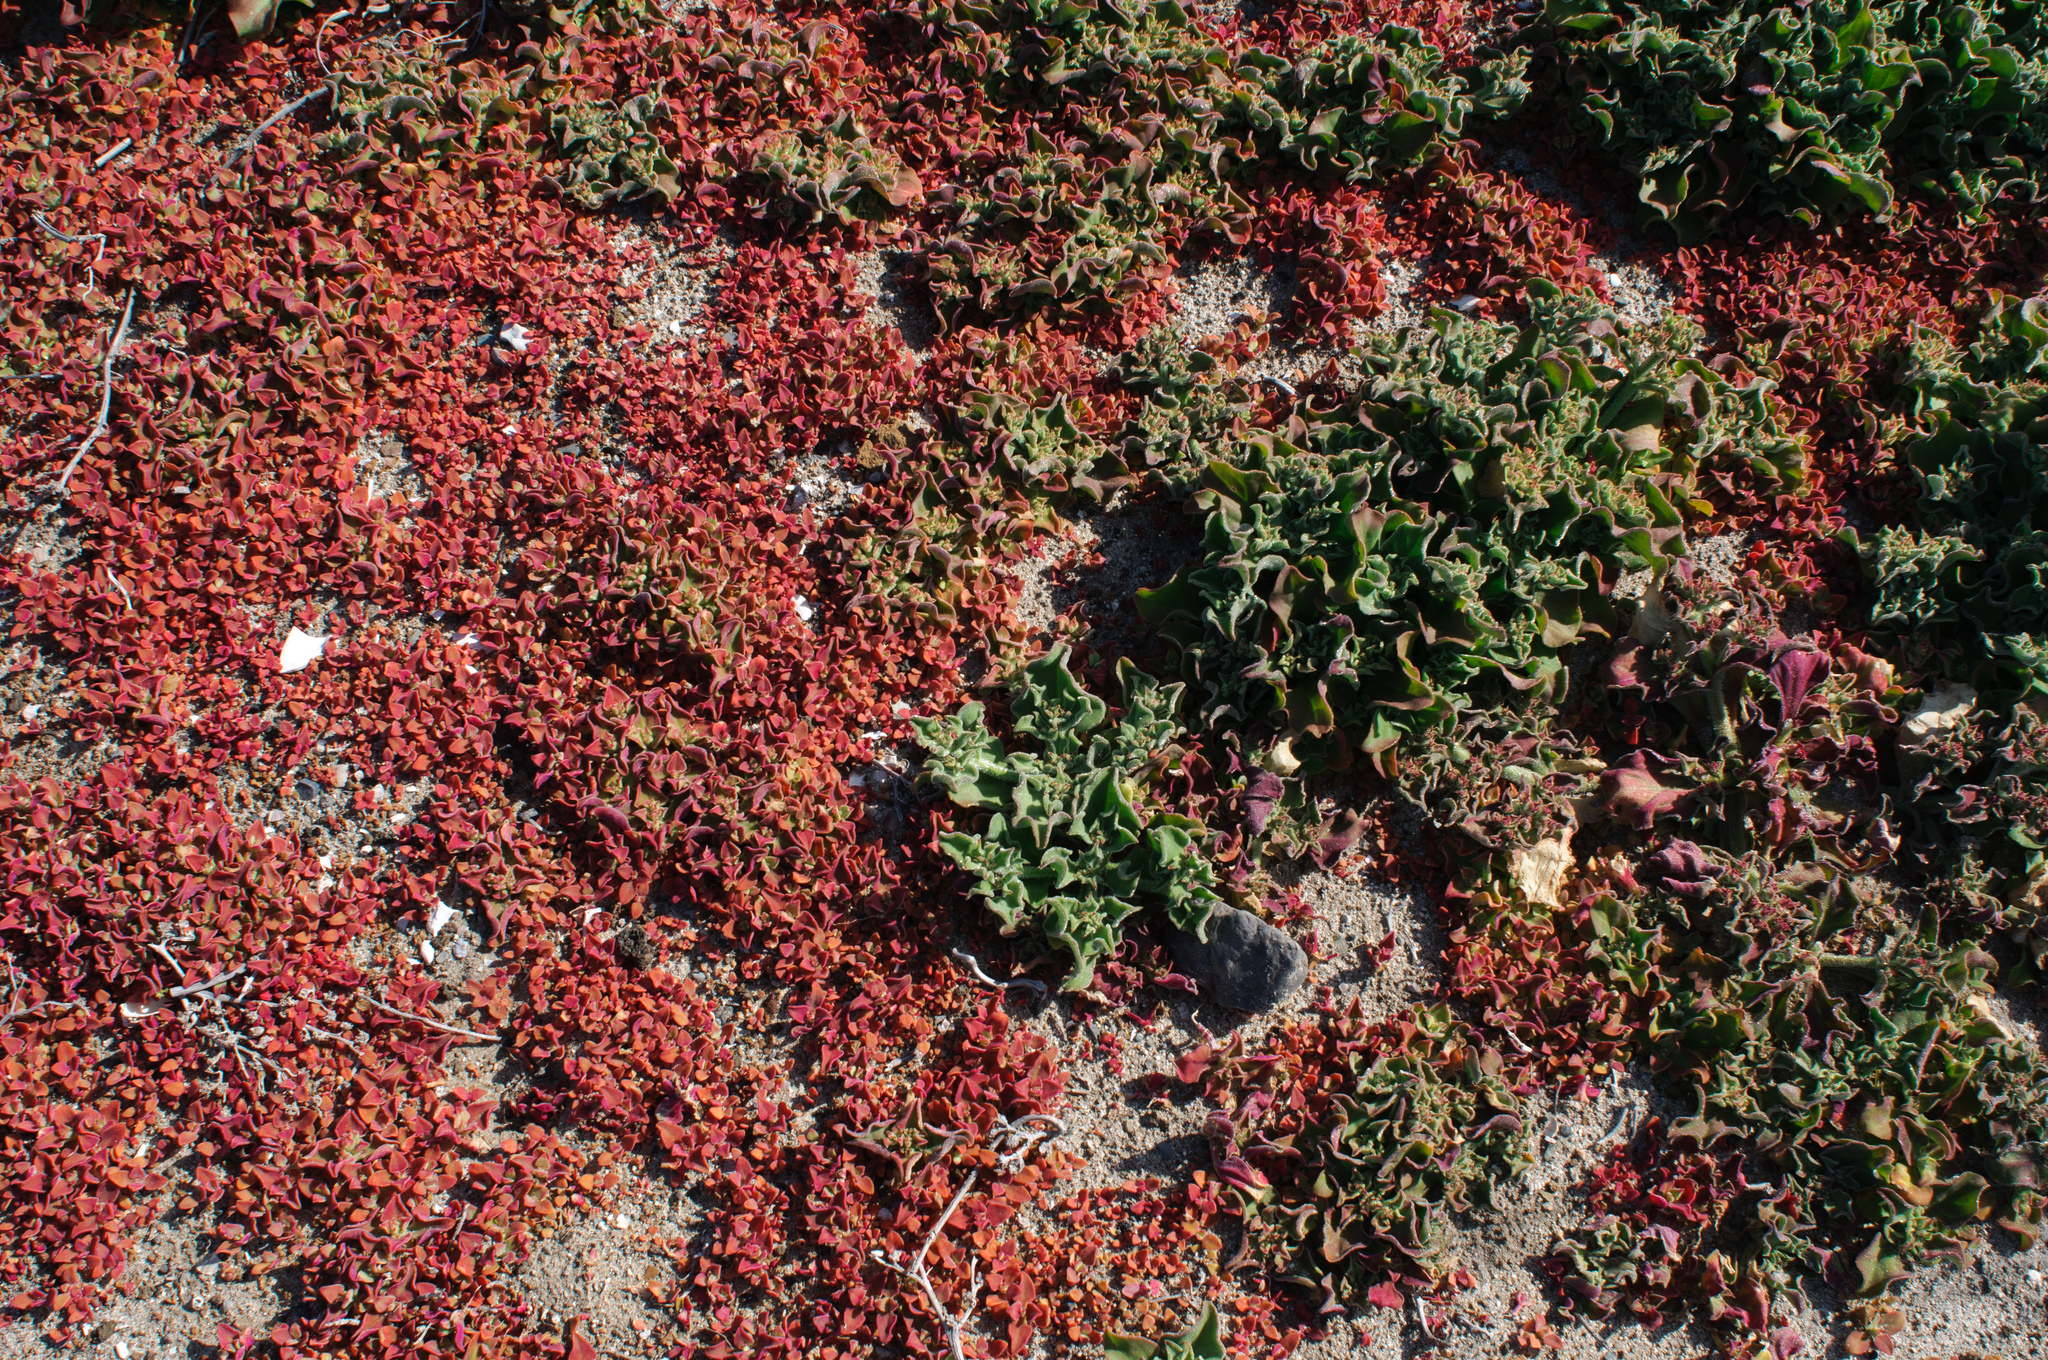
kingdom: Plantae
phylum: Tracheophyta
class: Magnoliopsida
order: Caryophyllales
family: Aizoaceae
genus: Mesembryanthemum
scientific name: Mesembryanthemum crystallinum
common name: Common iceplant
